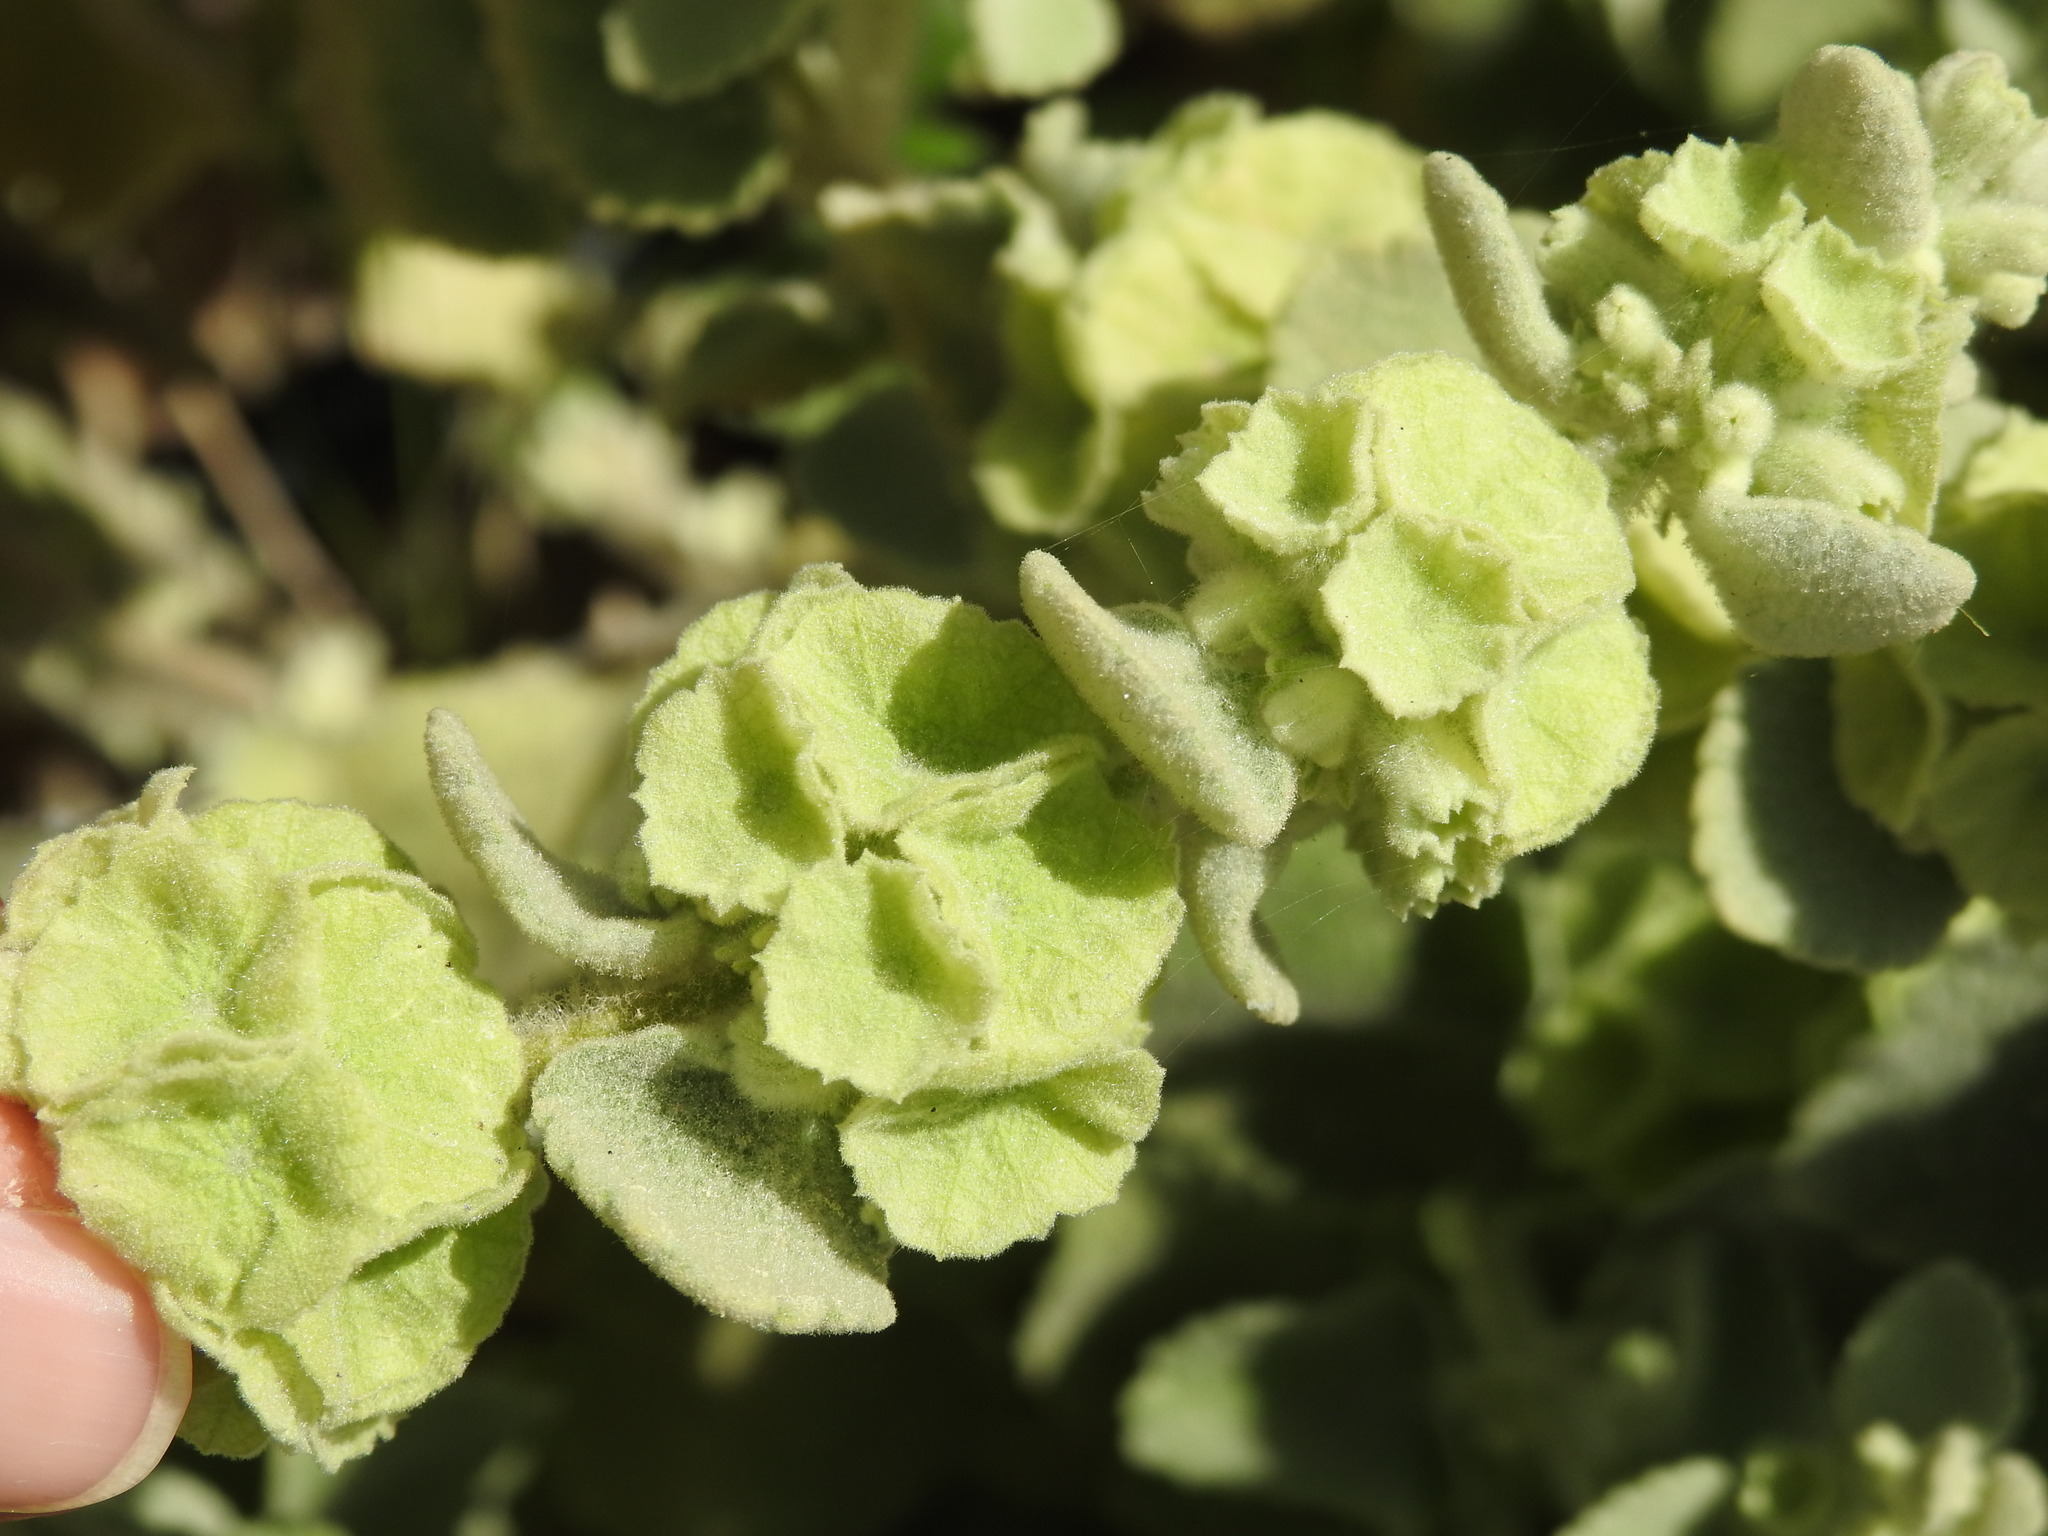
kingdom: Plantae
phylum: Tracheophyta
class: Magnoliopsida
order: Lamiales
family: Lamiaceae
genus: Pseudodictamnus
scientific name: Pseudodictamnus acetabulosus
